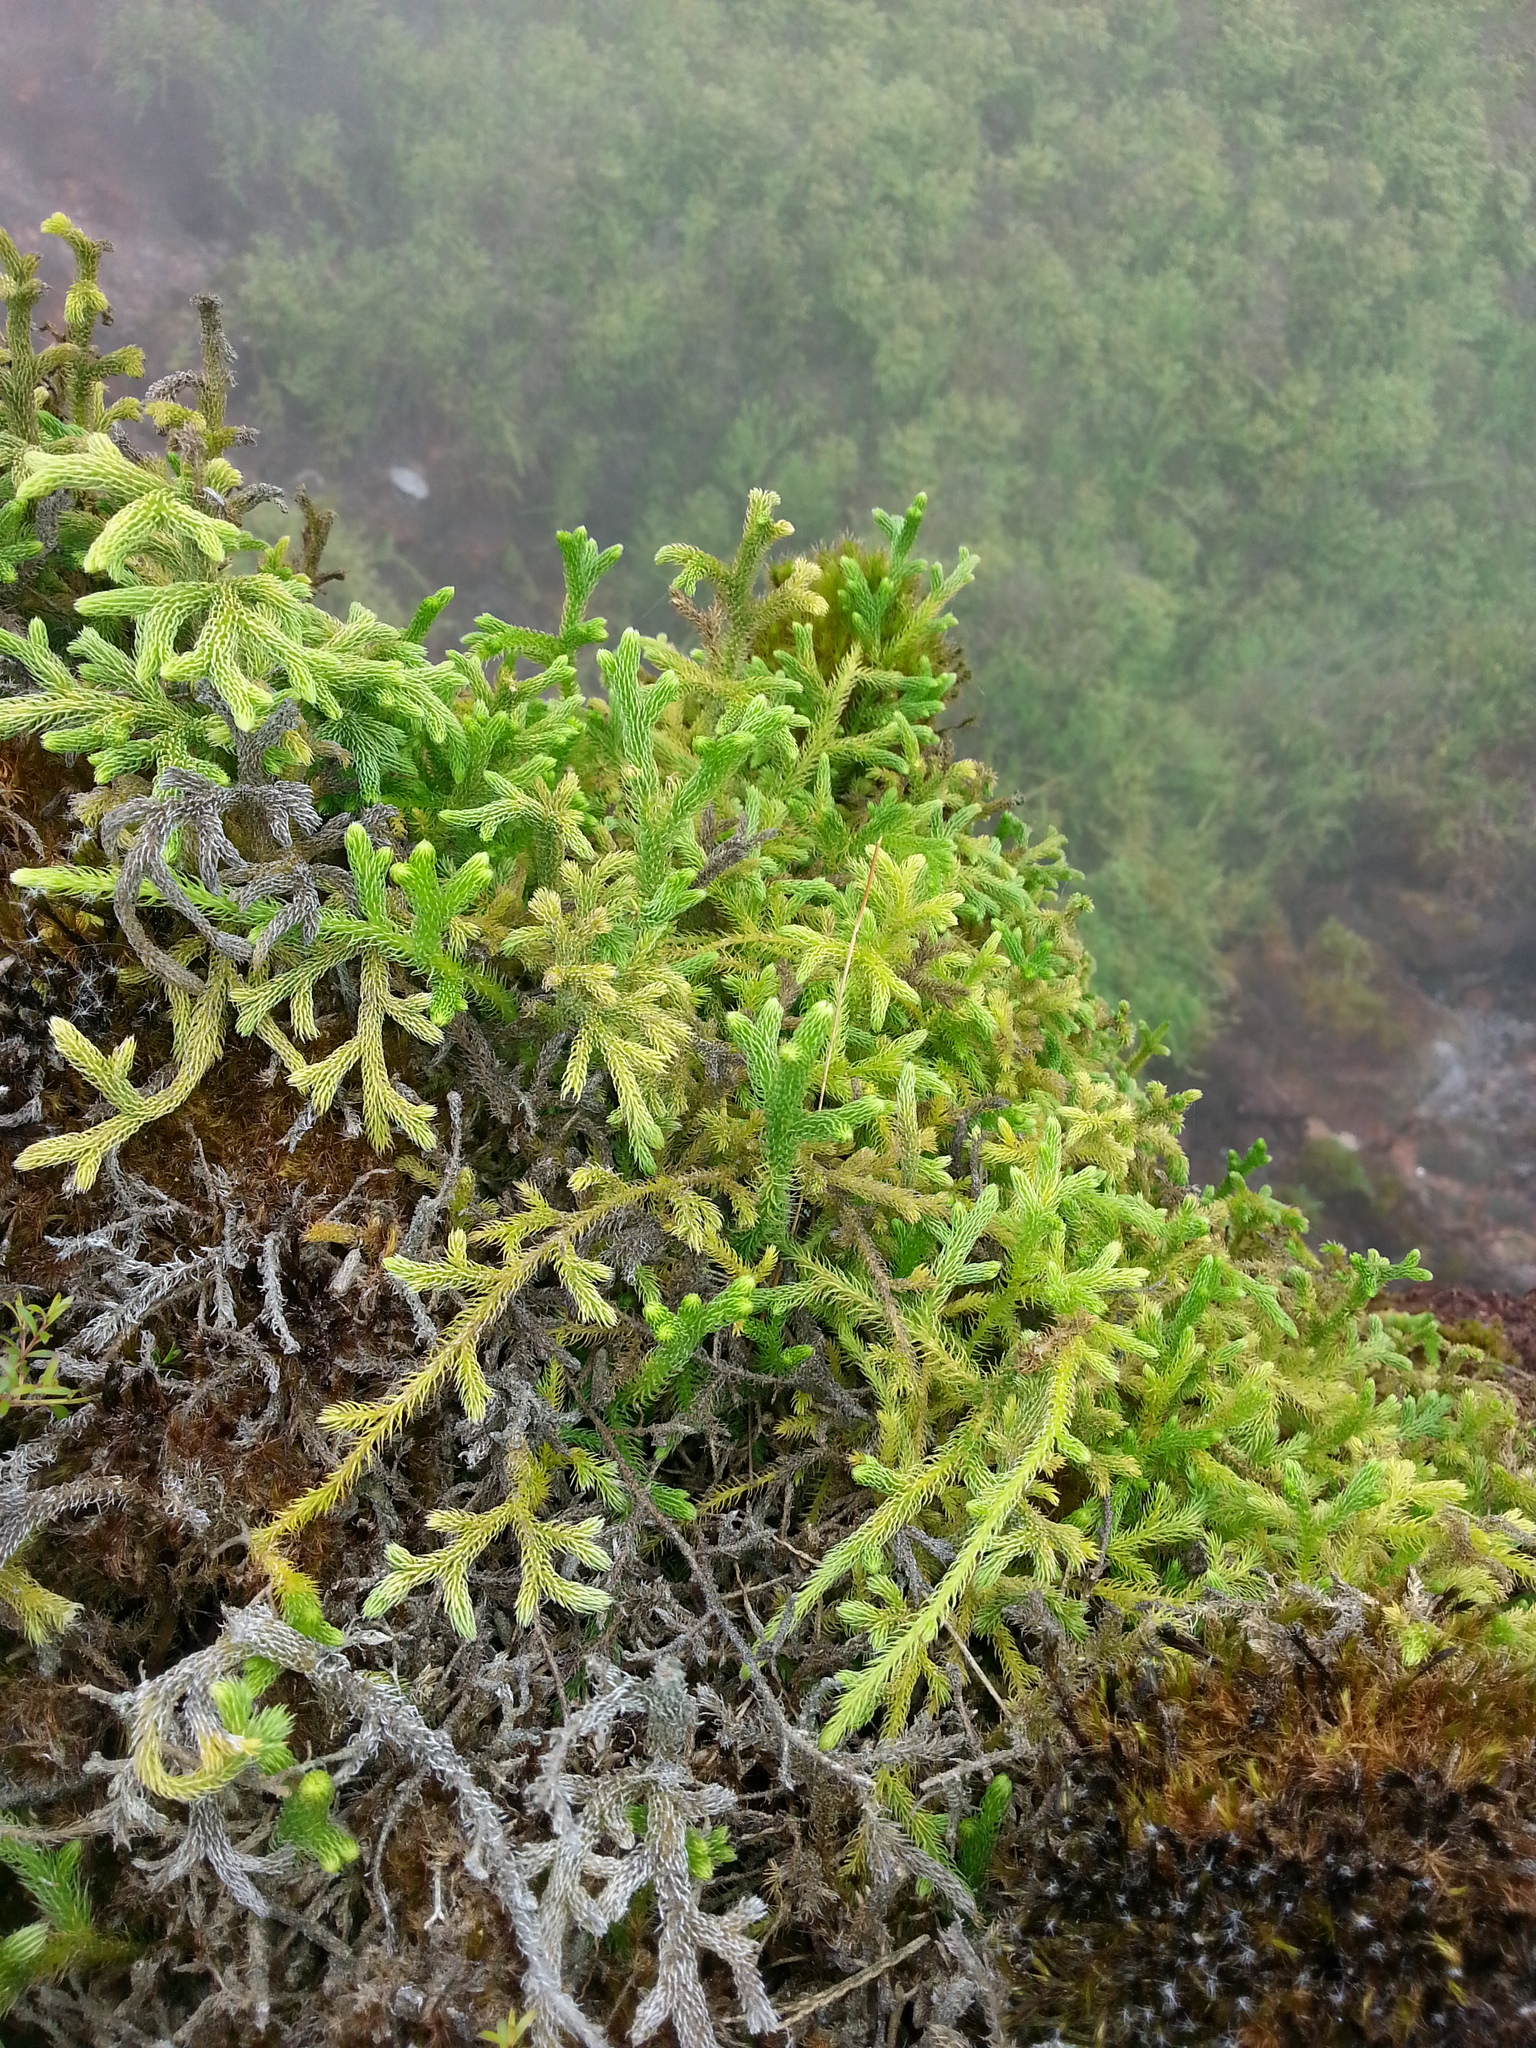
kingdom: Plantae
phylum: Tracheophyta
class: Lycopodiopsida
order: Lycopodiales
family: Lycopodiaceae
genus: Palhinhaea
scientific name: Palhinhaea cernua
